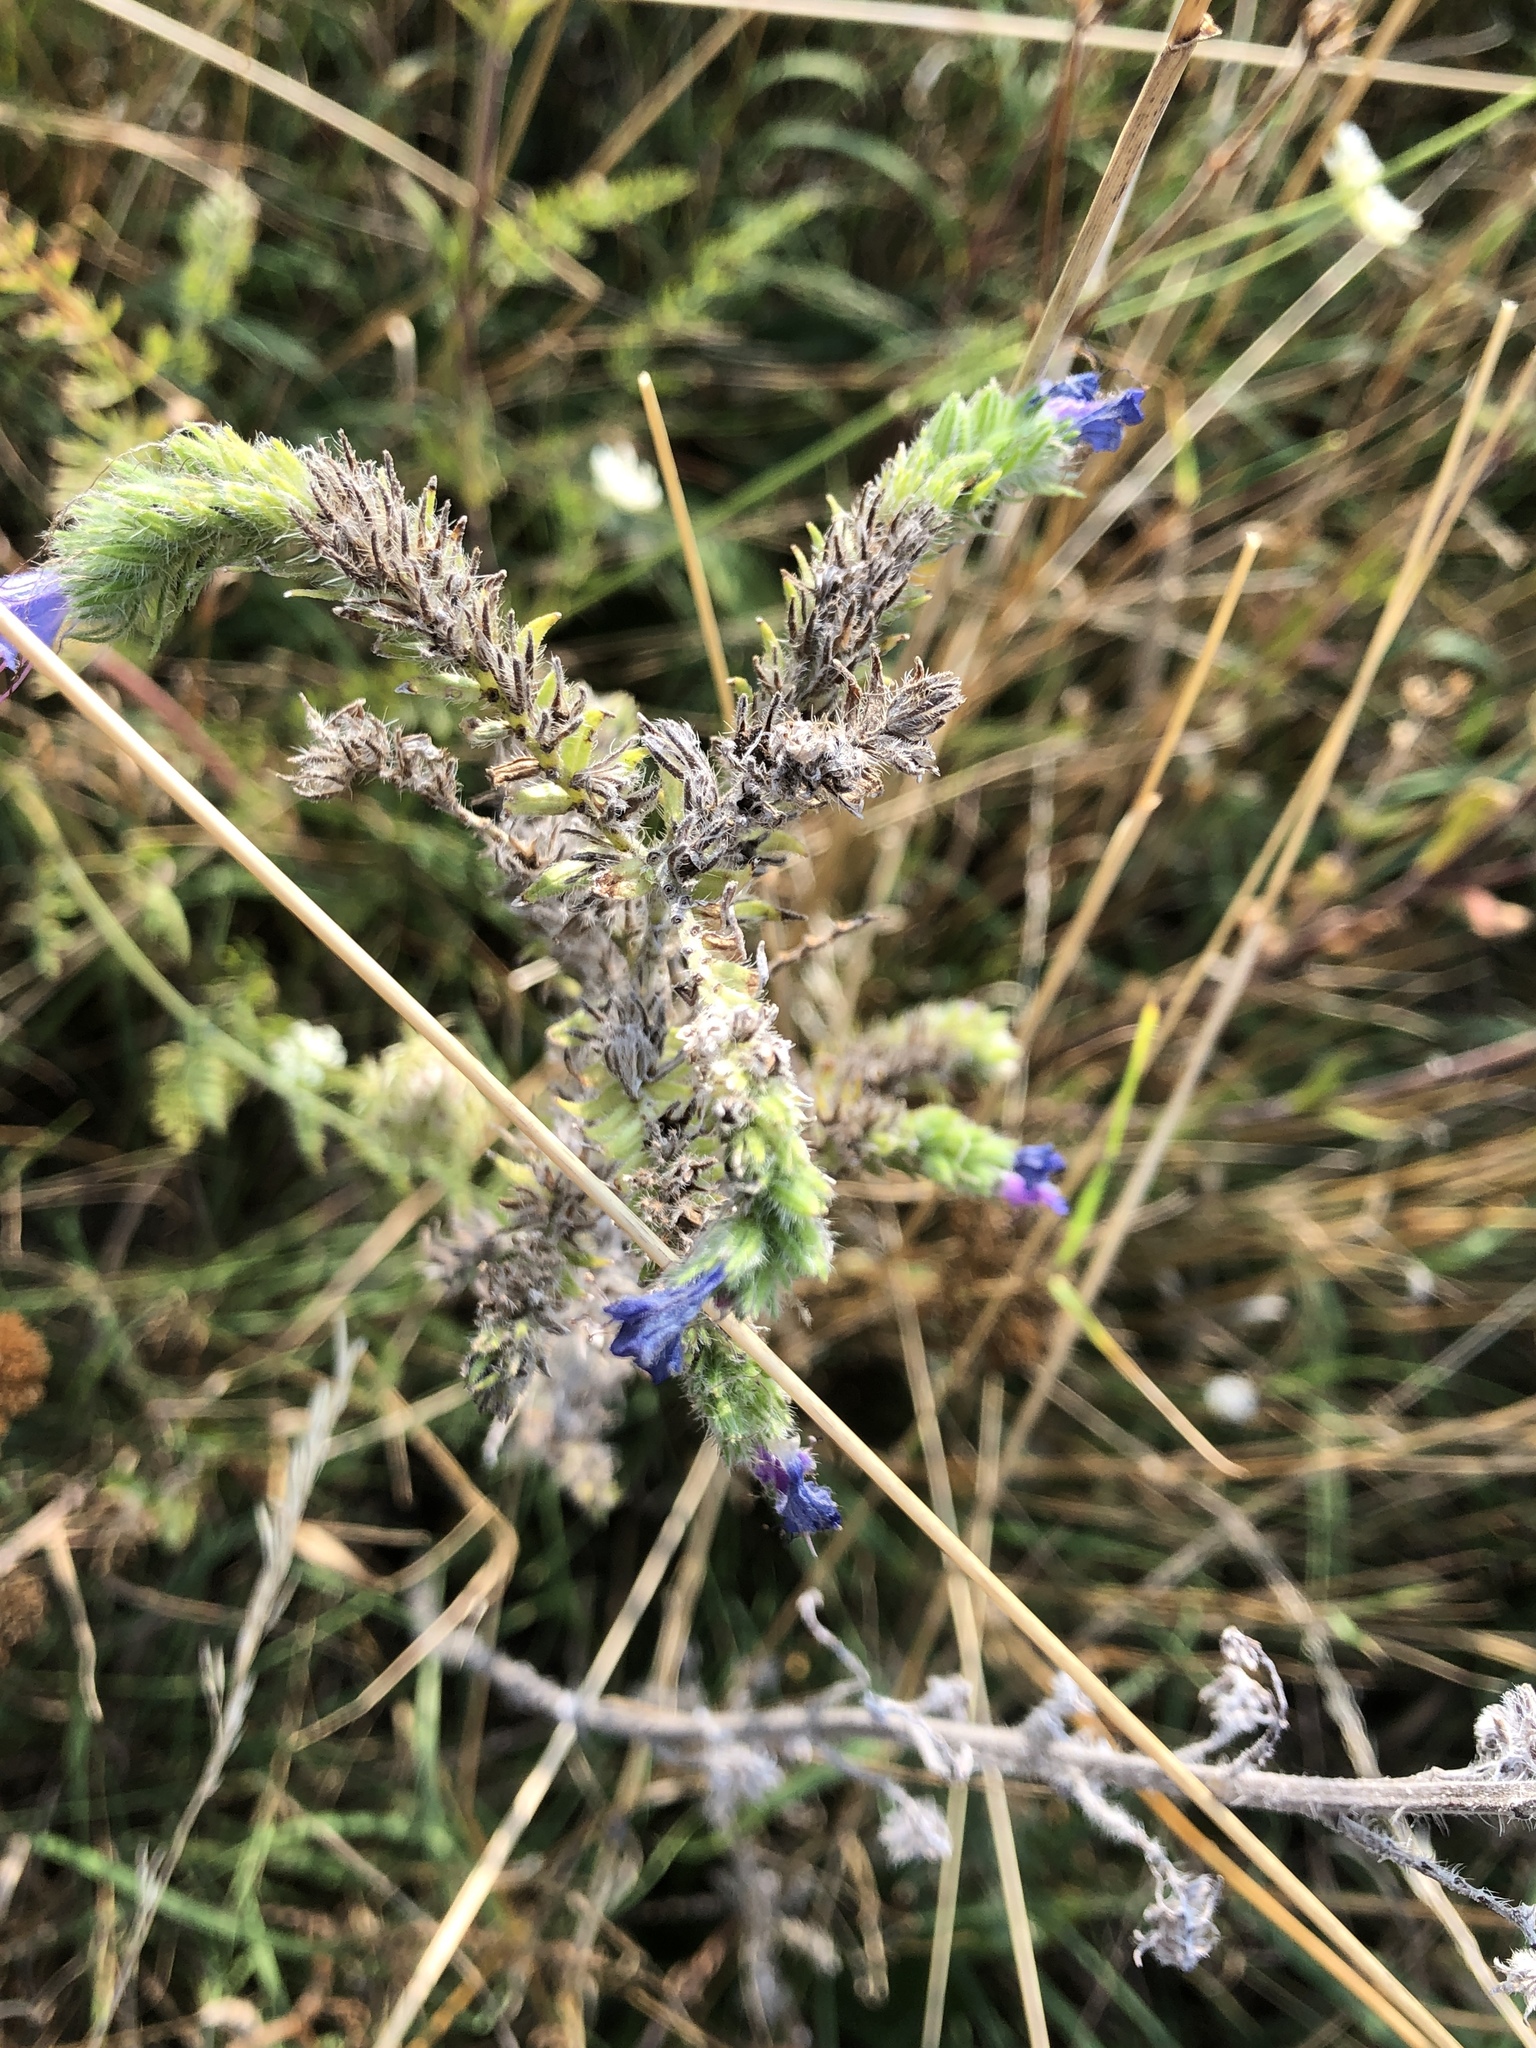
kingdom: Plantae
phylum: Tracheophyta
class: Magnoliopsida
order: Boraginales
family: Boraginaceae
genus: Echium
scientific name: Echium vulgare
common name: Common viper's bugloss
